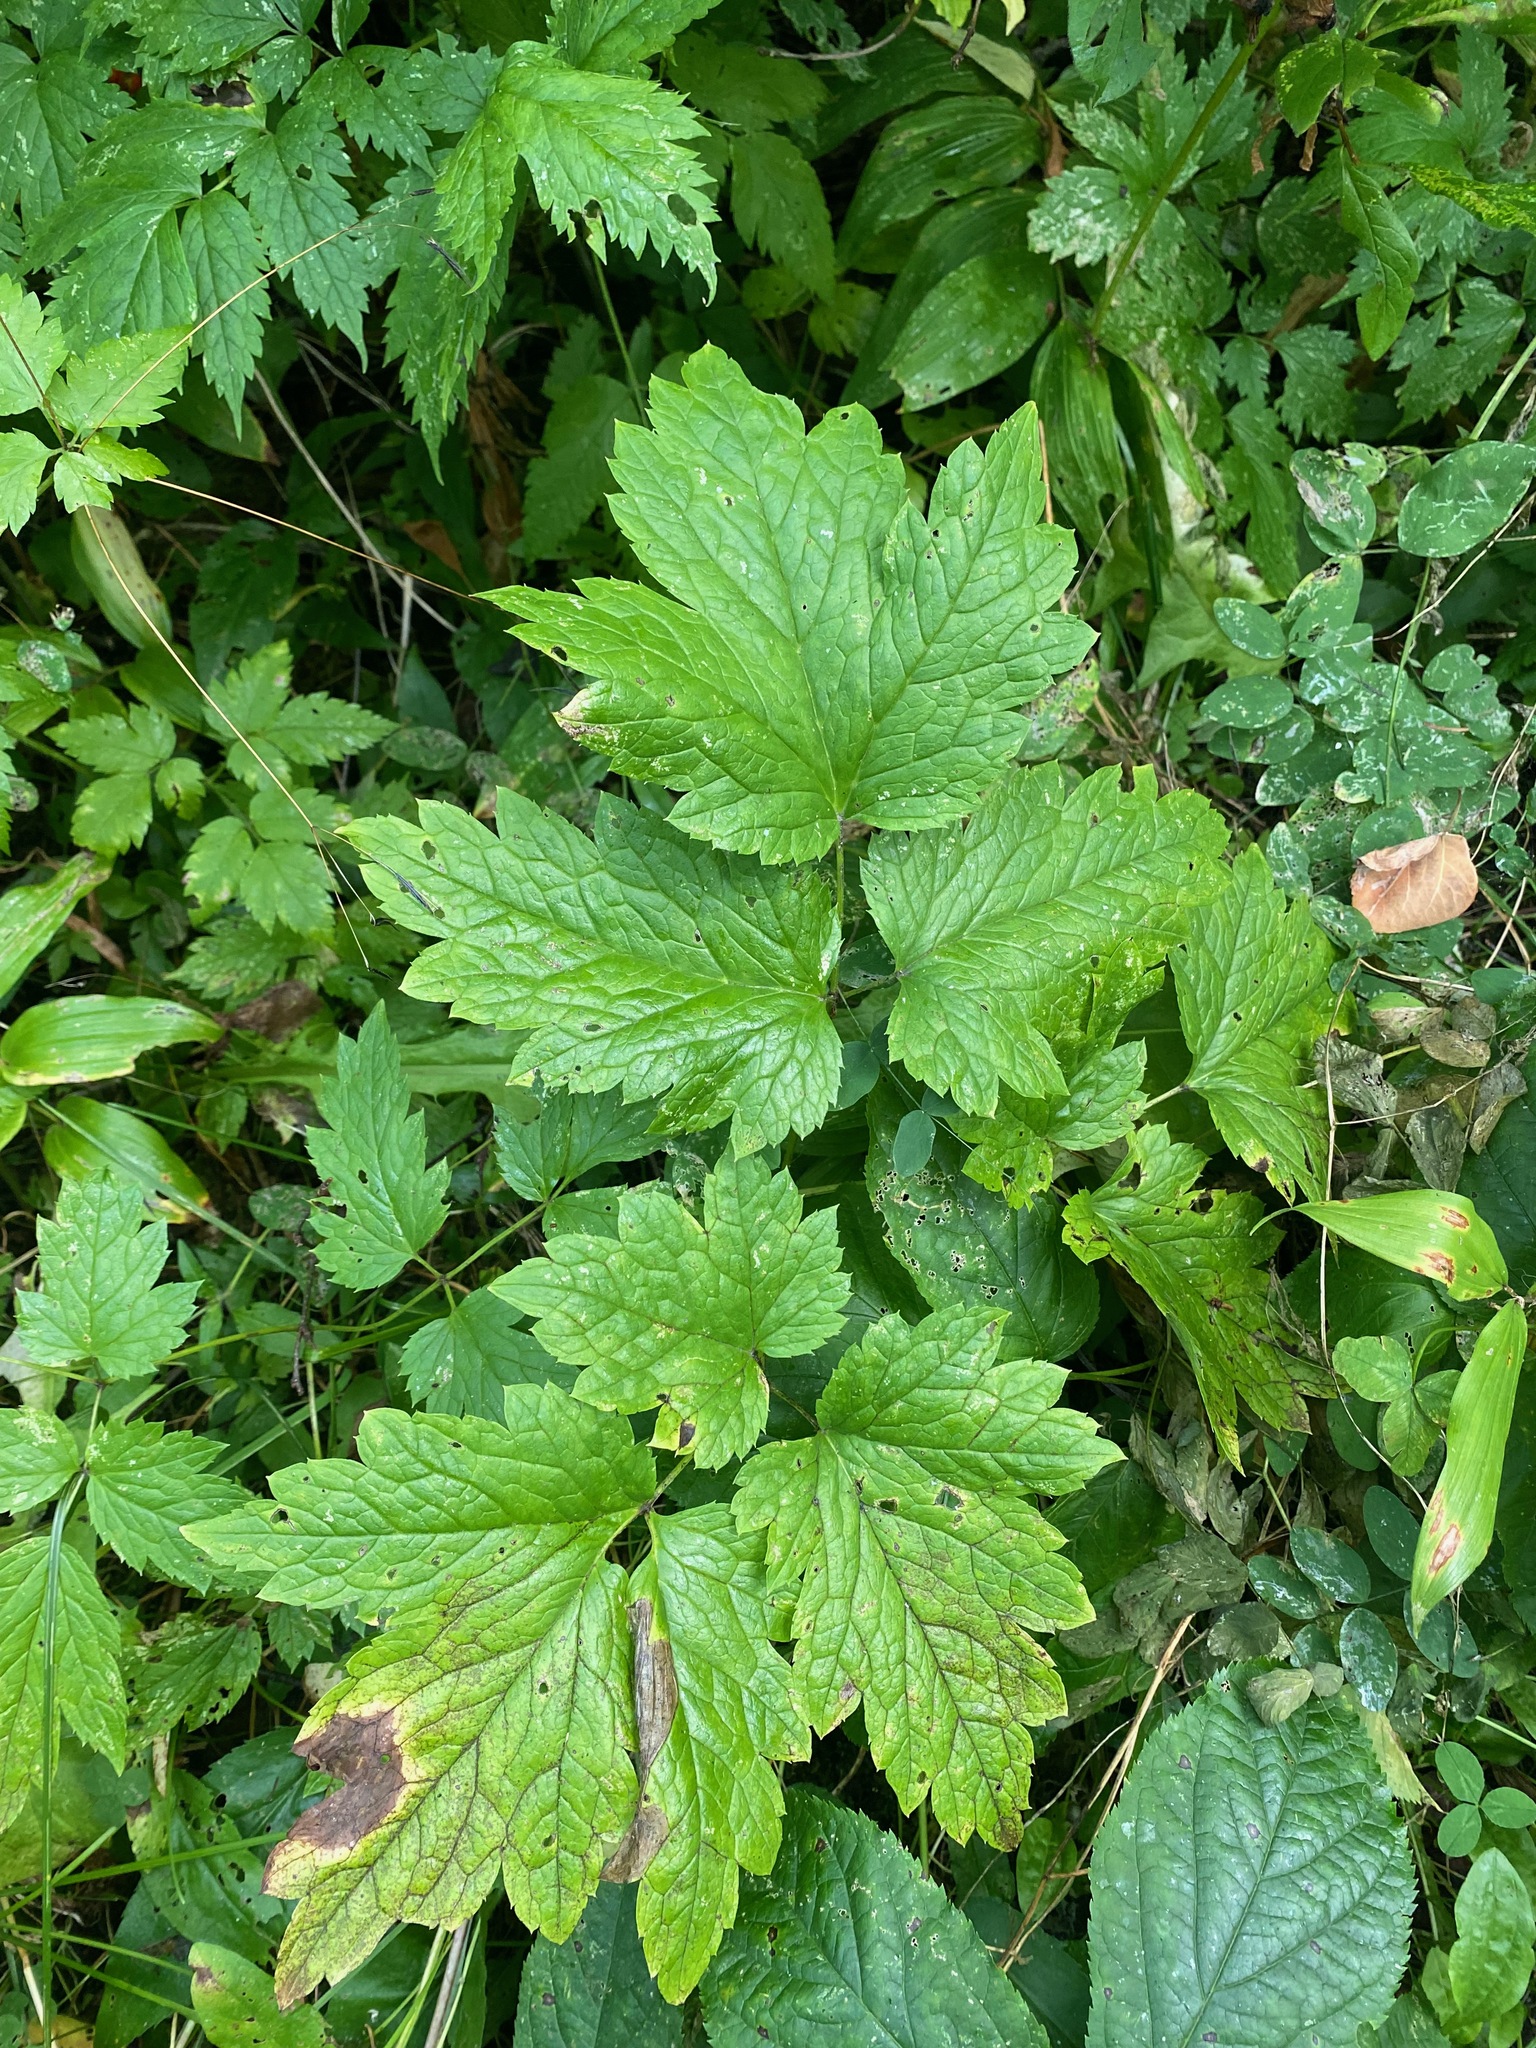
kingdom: Plantae
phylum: Tracheophyta
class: Magnoliopsida
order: Ranunculales
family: Ranunculaceae
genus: Actaea
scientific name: Actaea rubra
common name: Red baneberry
